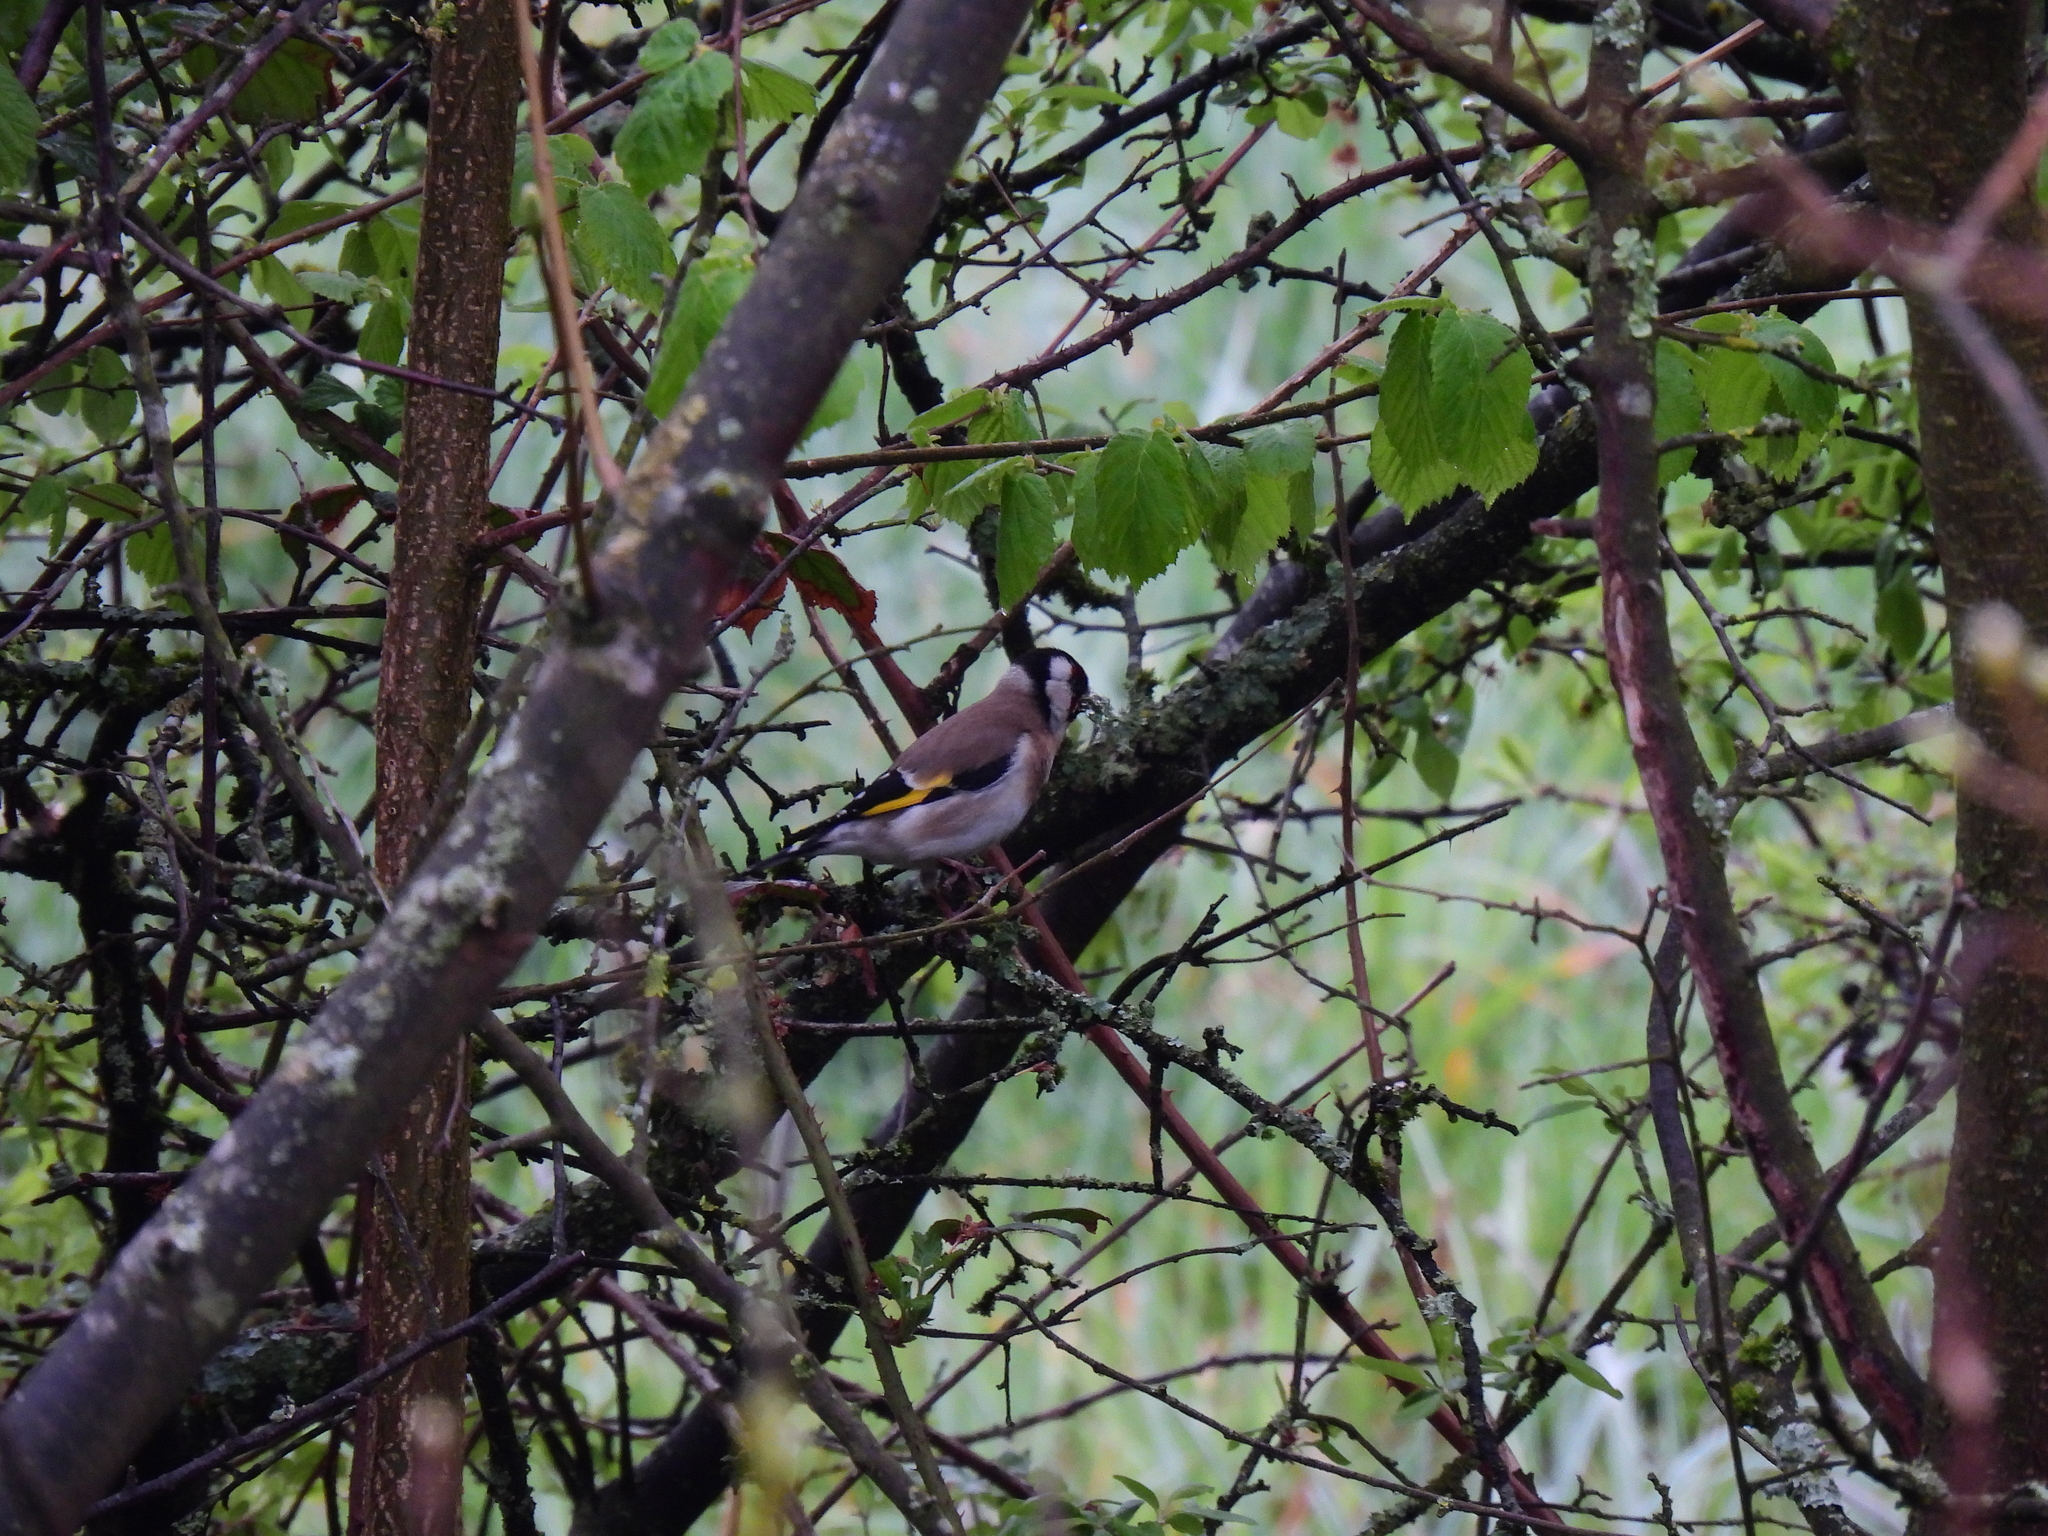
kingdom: Animalia
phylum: Chordata
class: Aves
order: Passeriformes
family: Fringillidae
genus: Carduelis
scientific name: Carduelis carduelis
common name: European goldfinch
